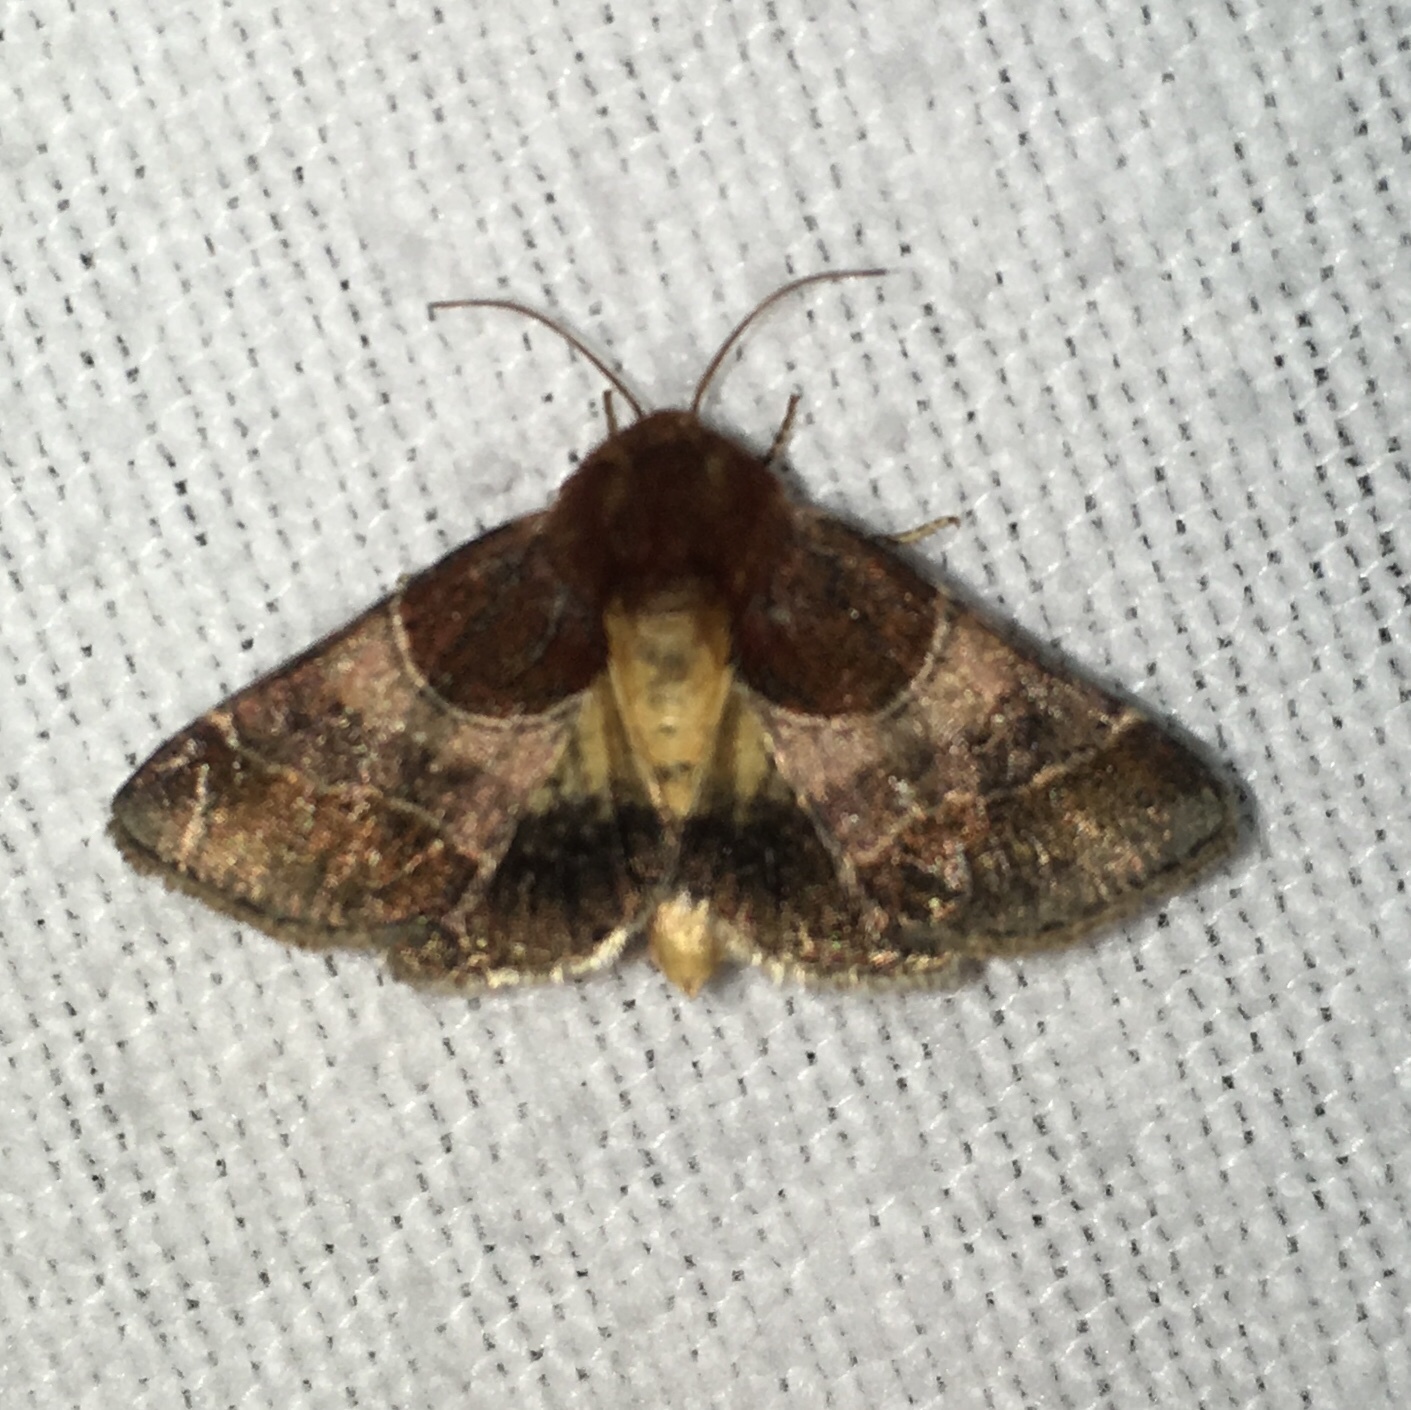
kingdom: Animalia
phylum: Arthropoda
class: Insecta
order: Lepidoptera
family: Noctuidae
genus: Schinia
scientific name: Schinia arcigera
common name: Arcigera flower moth
